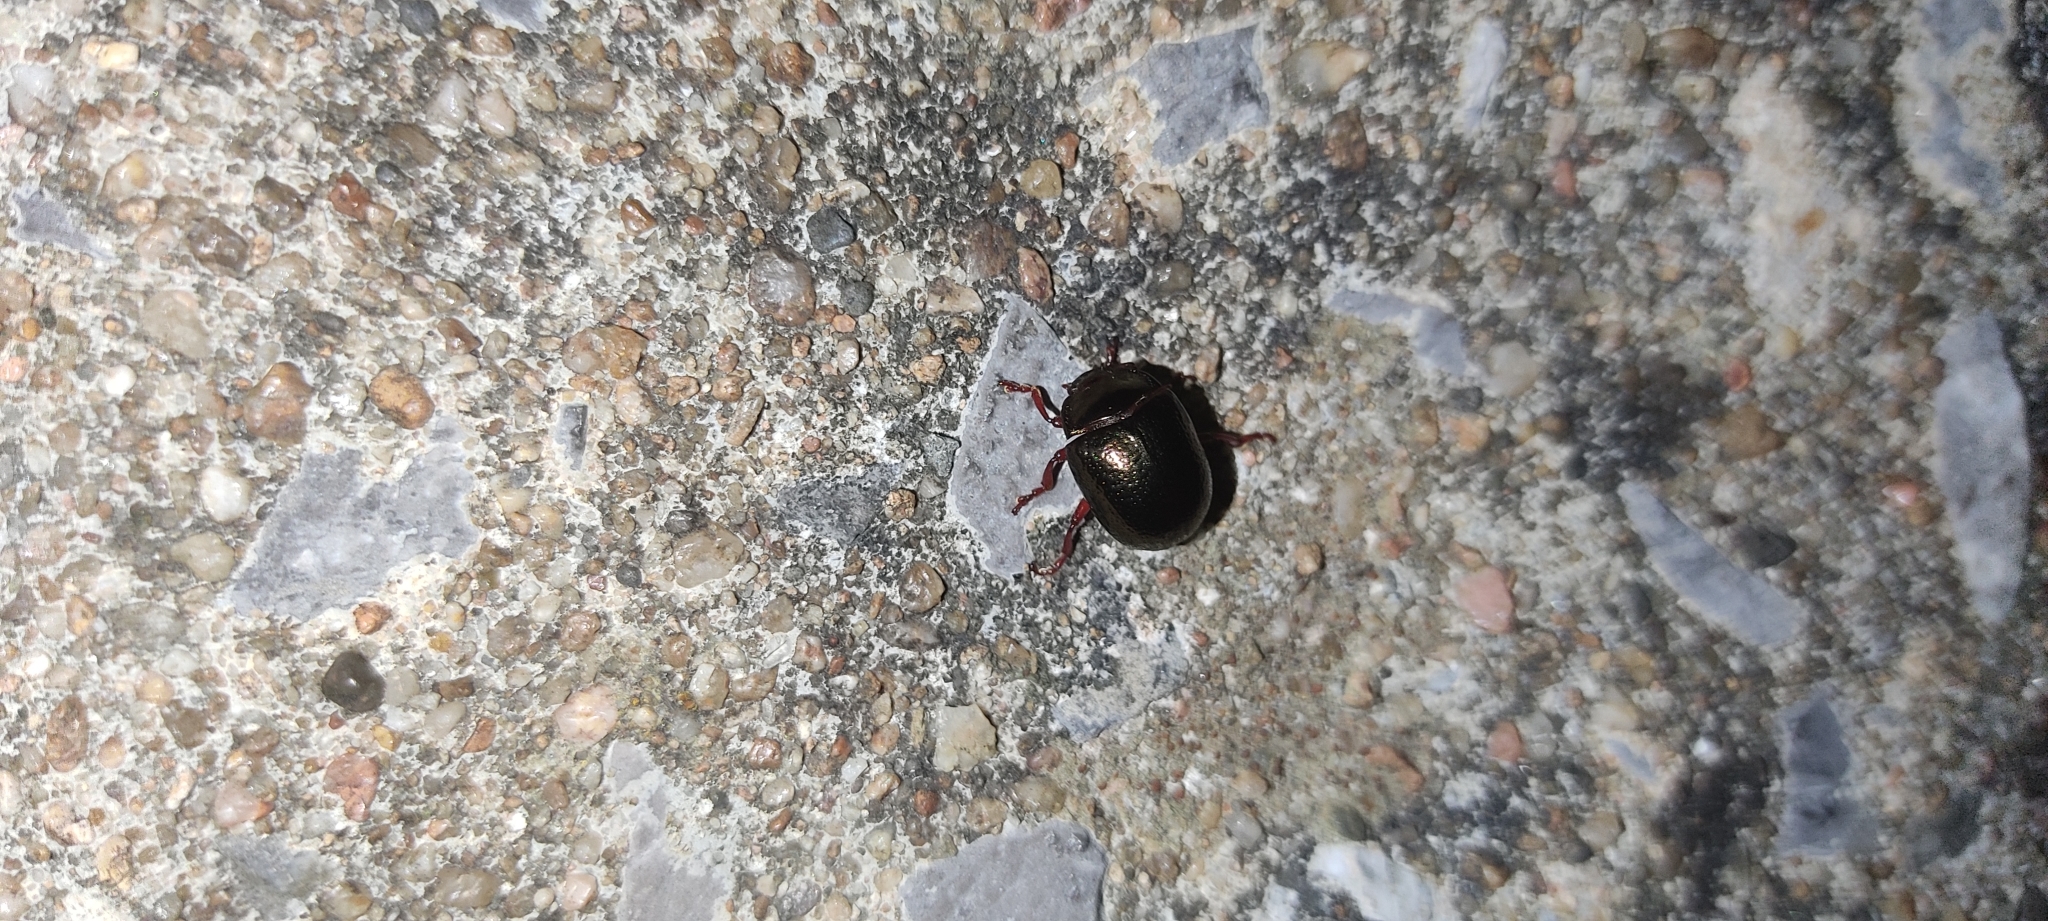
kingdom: Animalia
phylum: Arthropoda
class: Insecta
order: Coleoptera
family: Chrysomelidae
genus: Chrysolina
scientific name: Chrysolina bankii
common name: Leaf beetle
